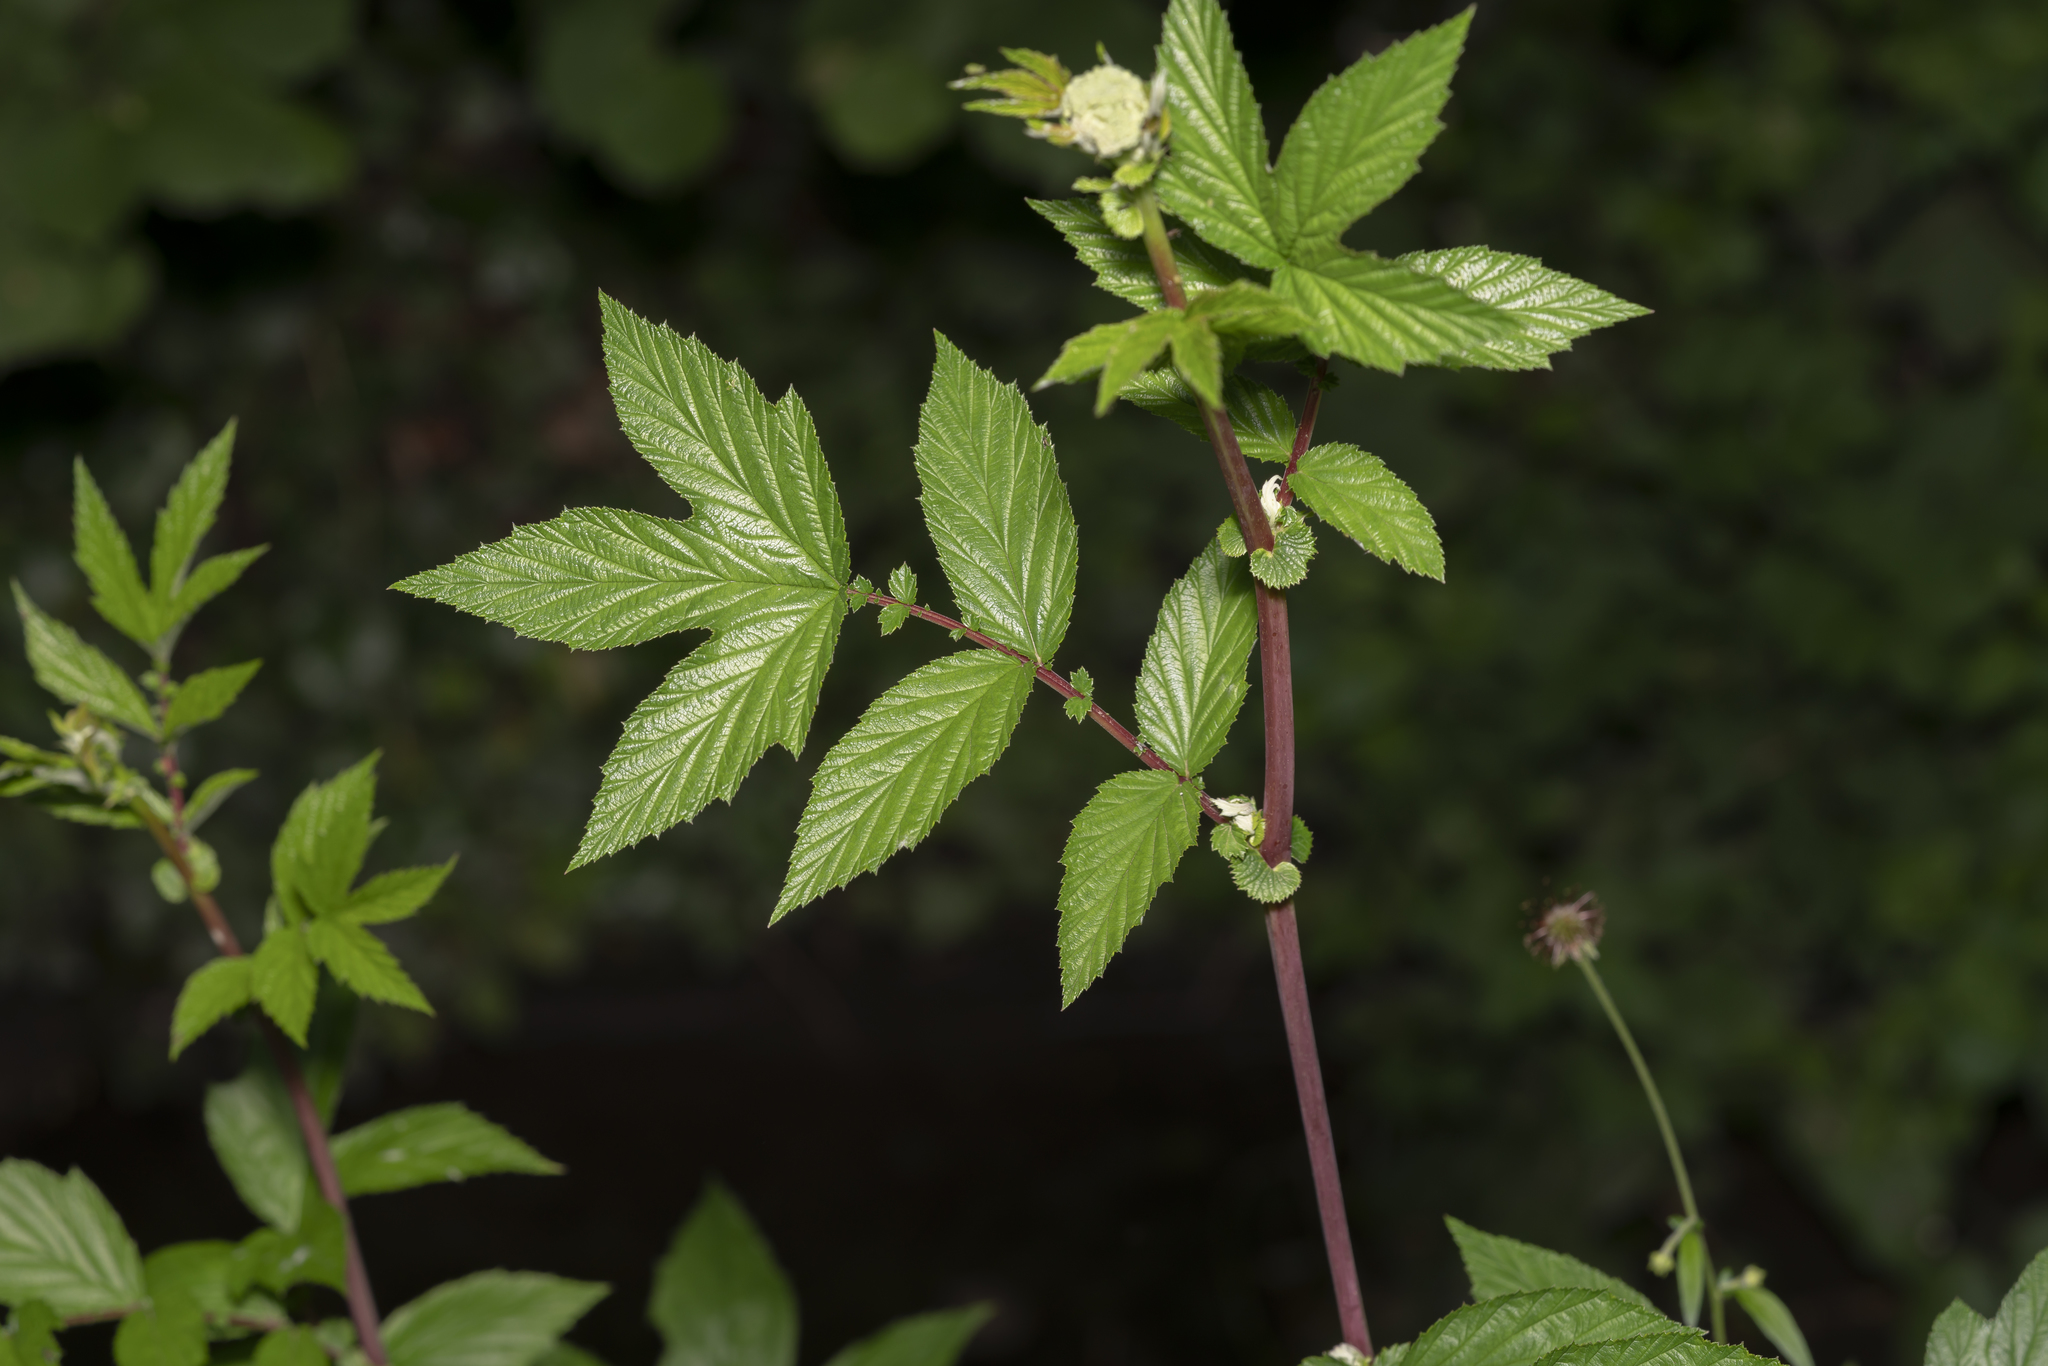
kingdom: Plantae
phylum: Tracheophyta
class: Magnoliopsida
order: Rosales
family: Rosaceae
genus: Filipendula
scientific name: Filipendula ulmaria
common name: Meadowsweet
